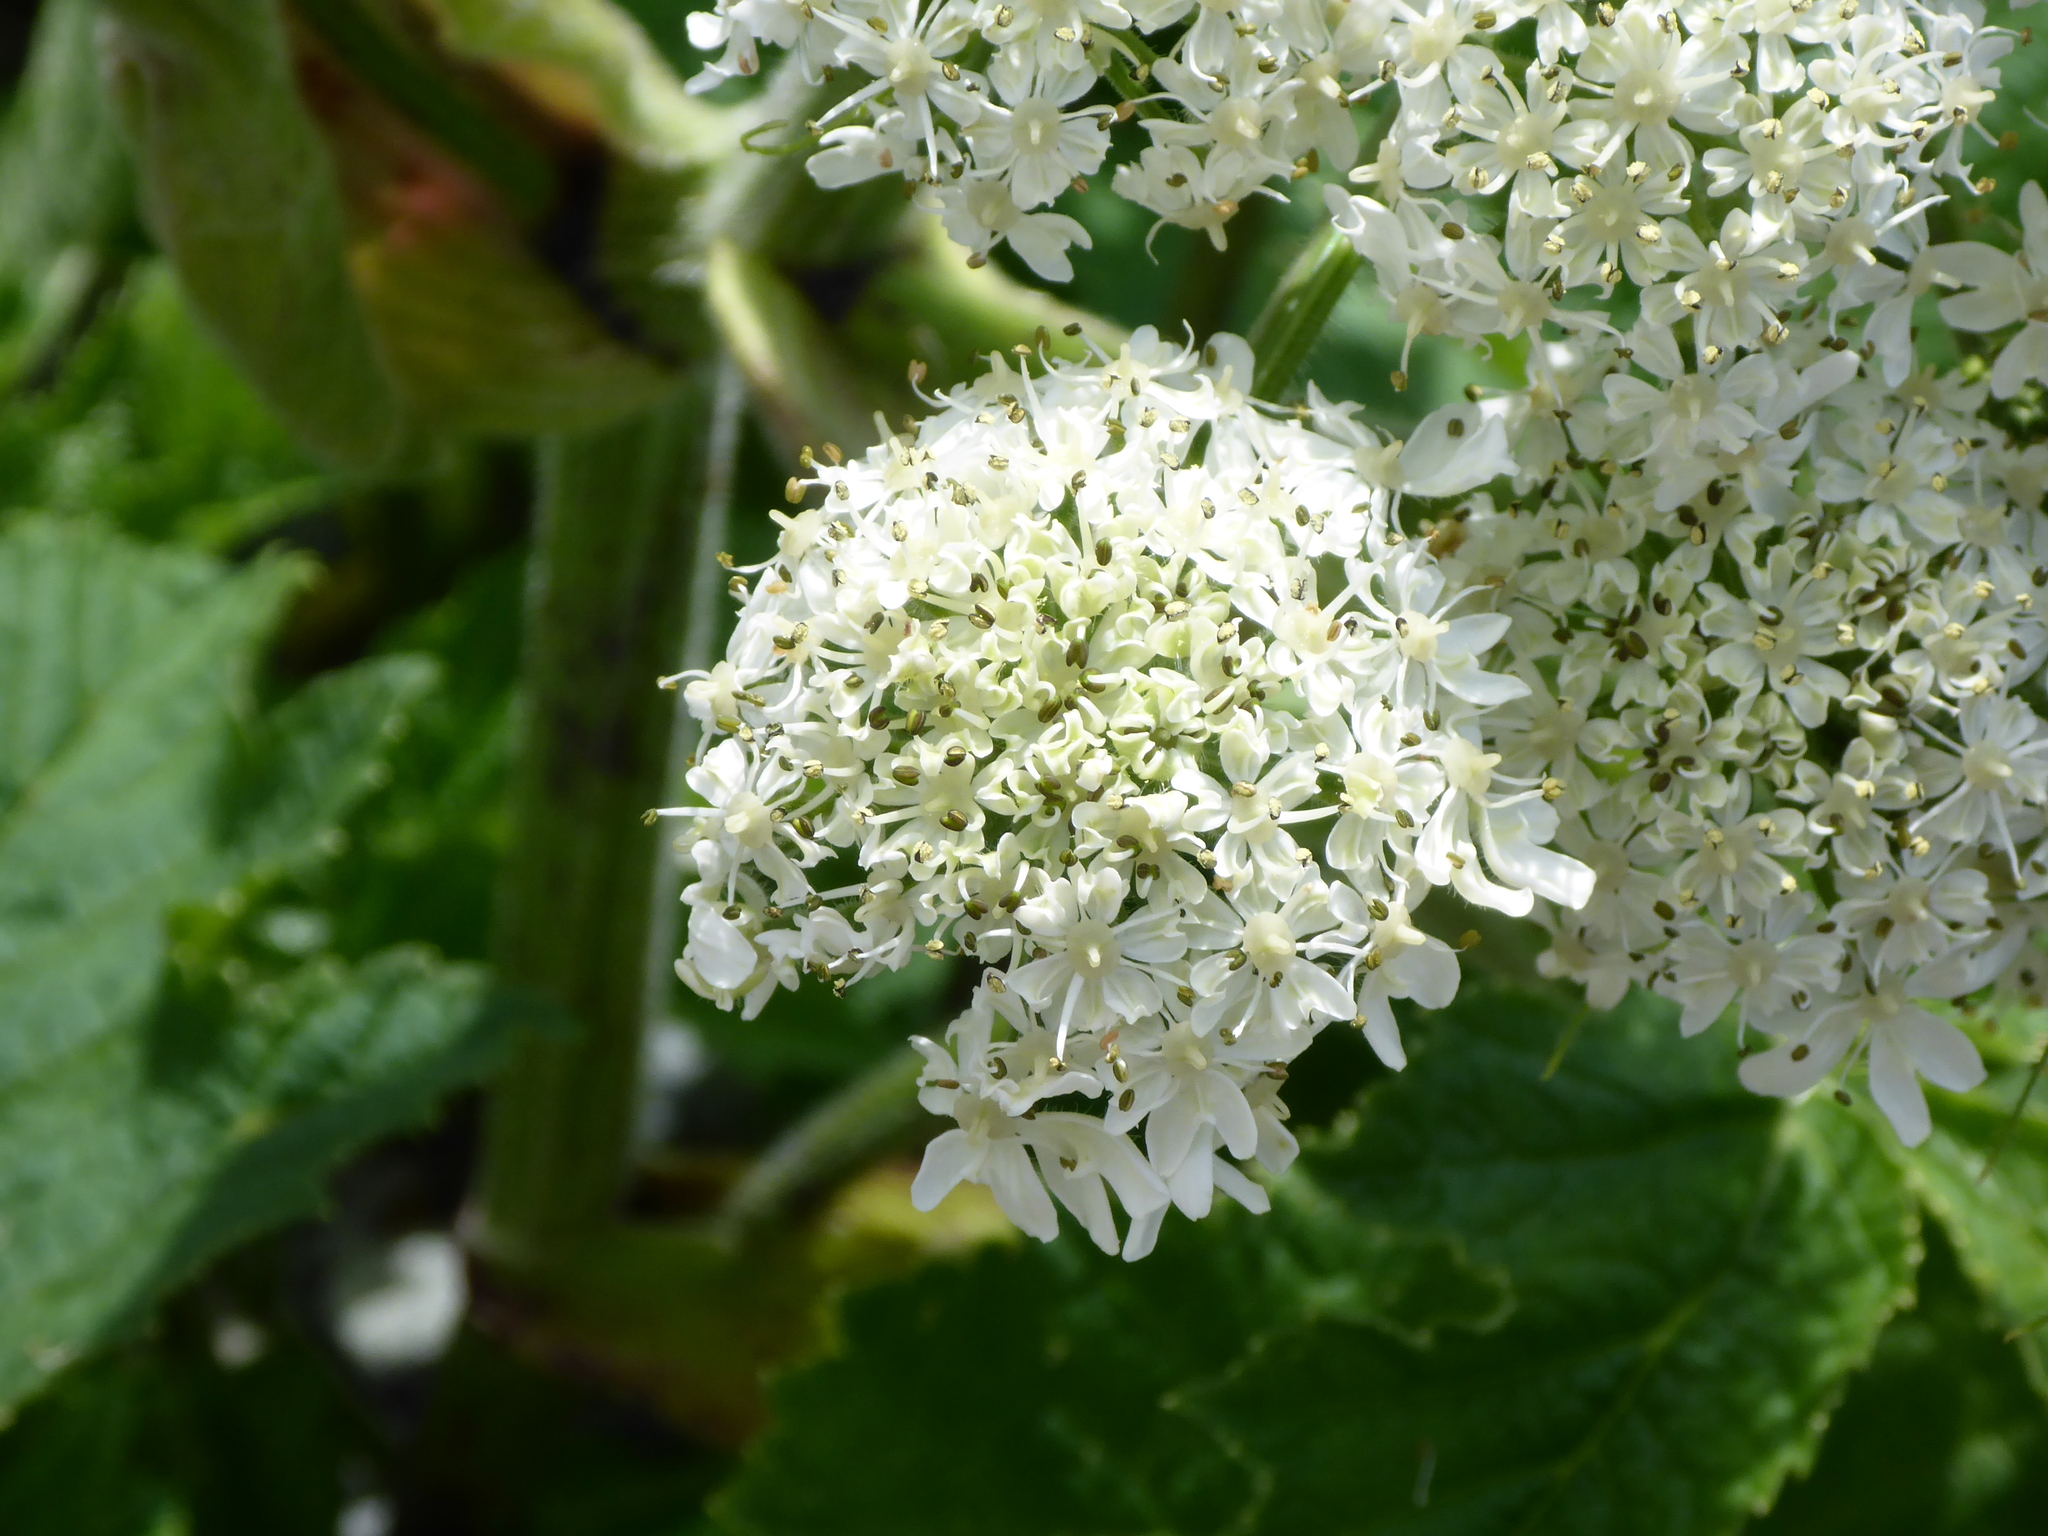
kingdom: Plantae
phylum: Tracheophyta
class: Magnoliopsida
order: Apiales
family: Apiaceae
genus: Heracleum
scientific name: Heracleum maximum
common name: American cow parsnip
